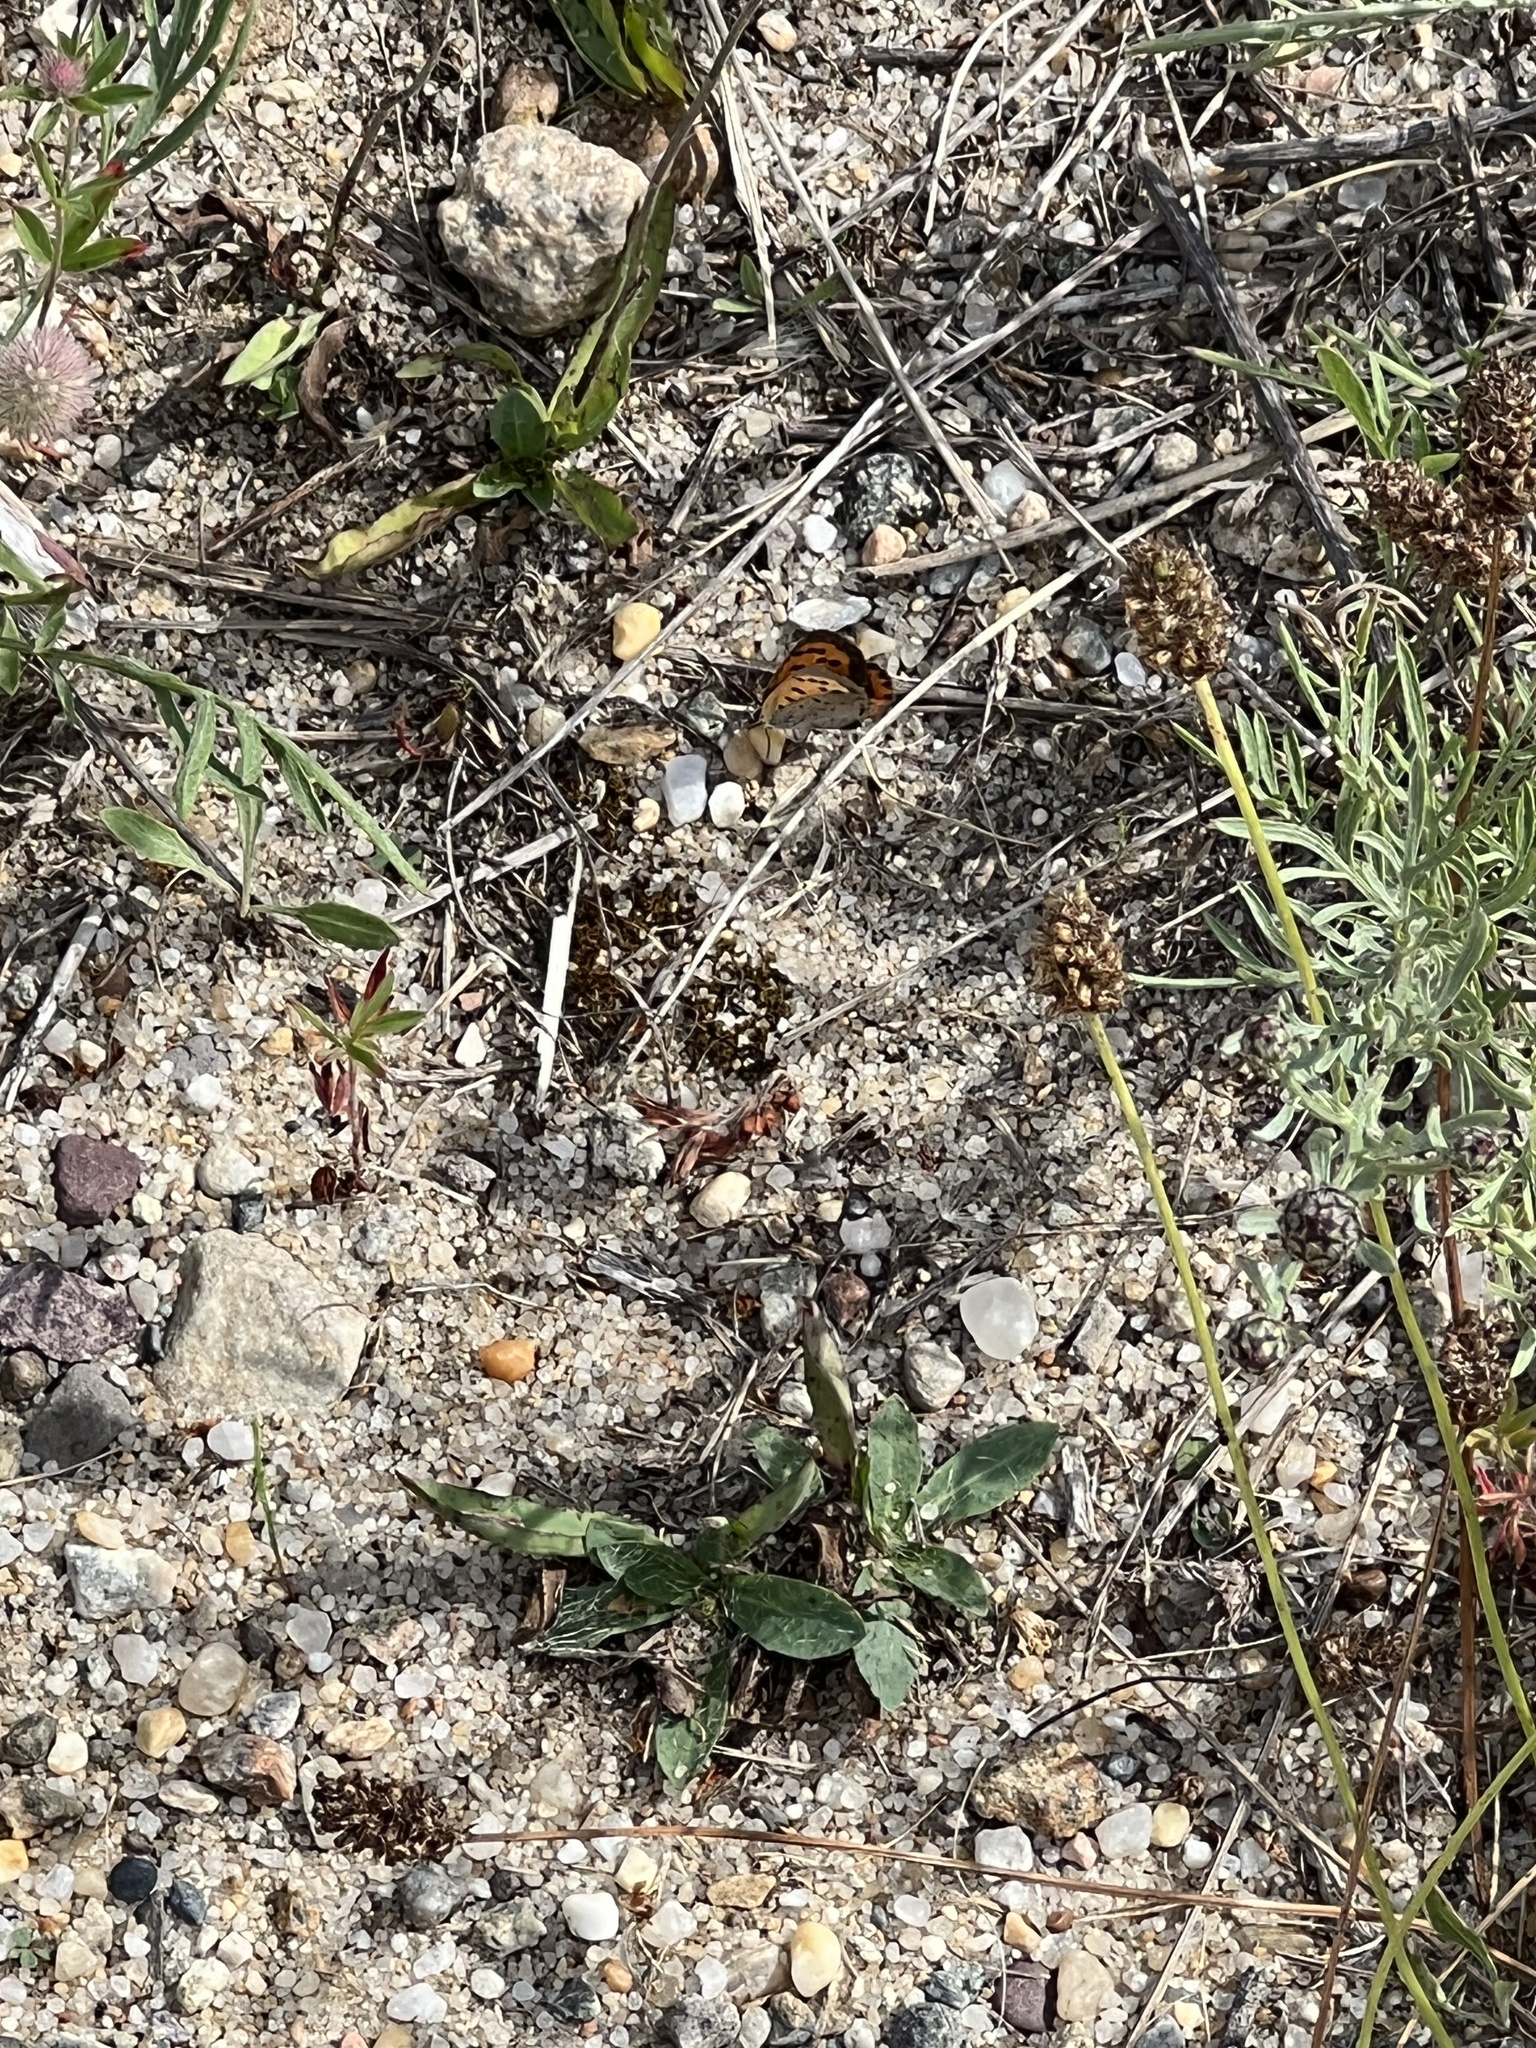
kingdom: Animalia
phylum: Arthropoda
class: Insecta
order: Lepidoptera
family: Lycaenidae
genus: Lycaena
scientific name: Lycaena hypophlaeas
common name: American copper
